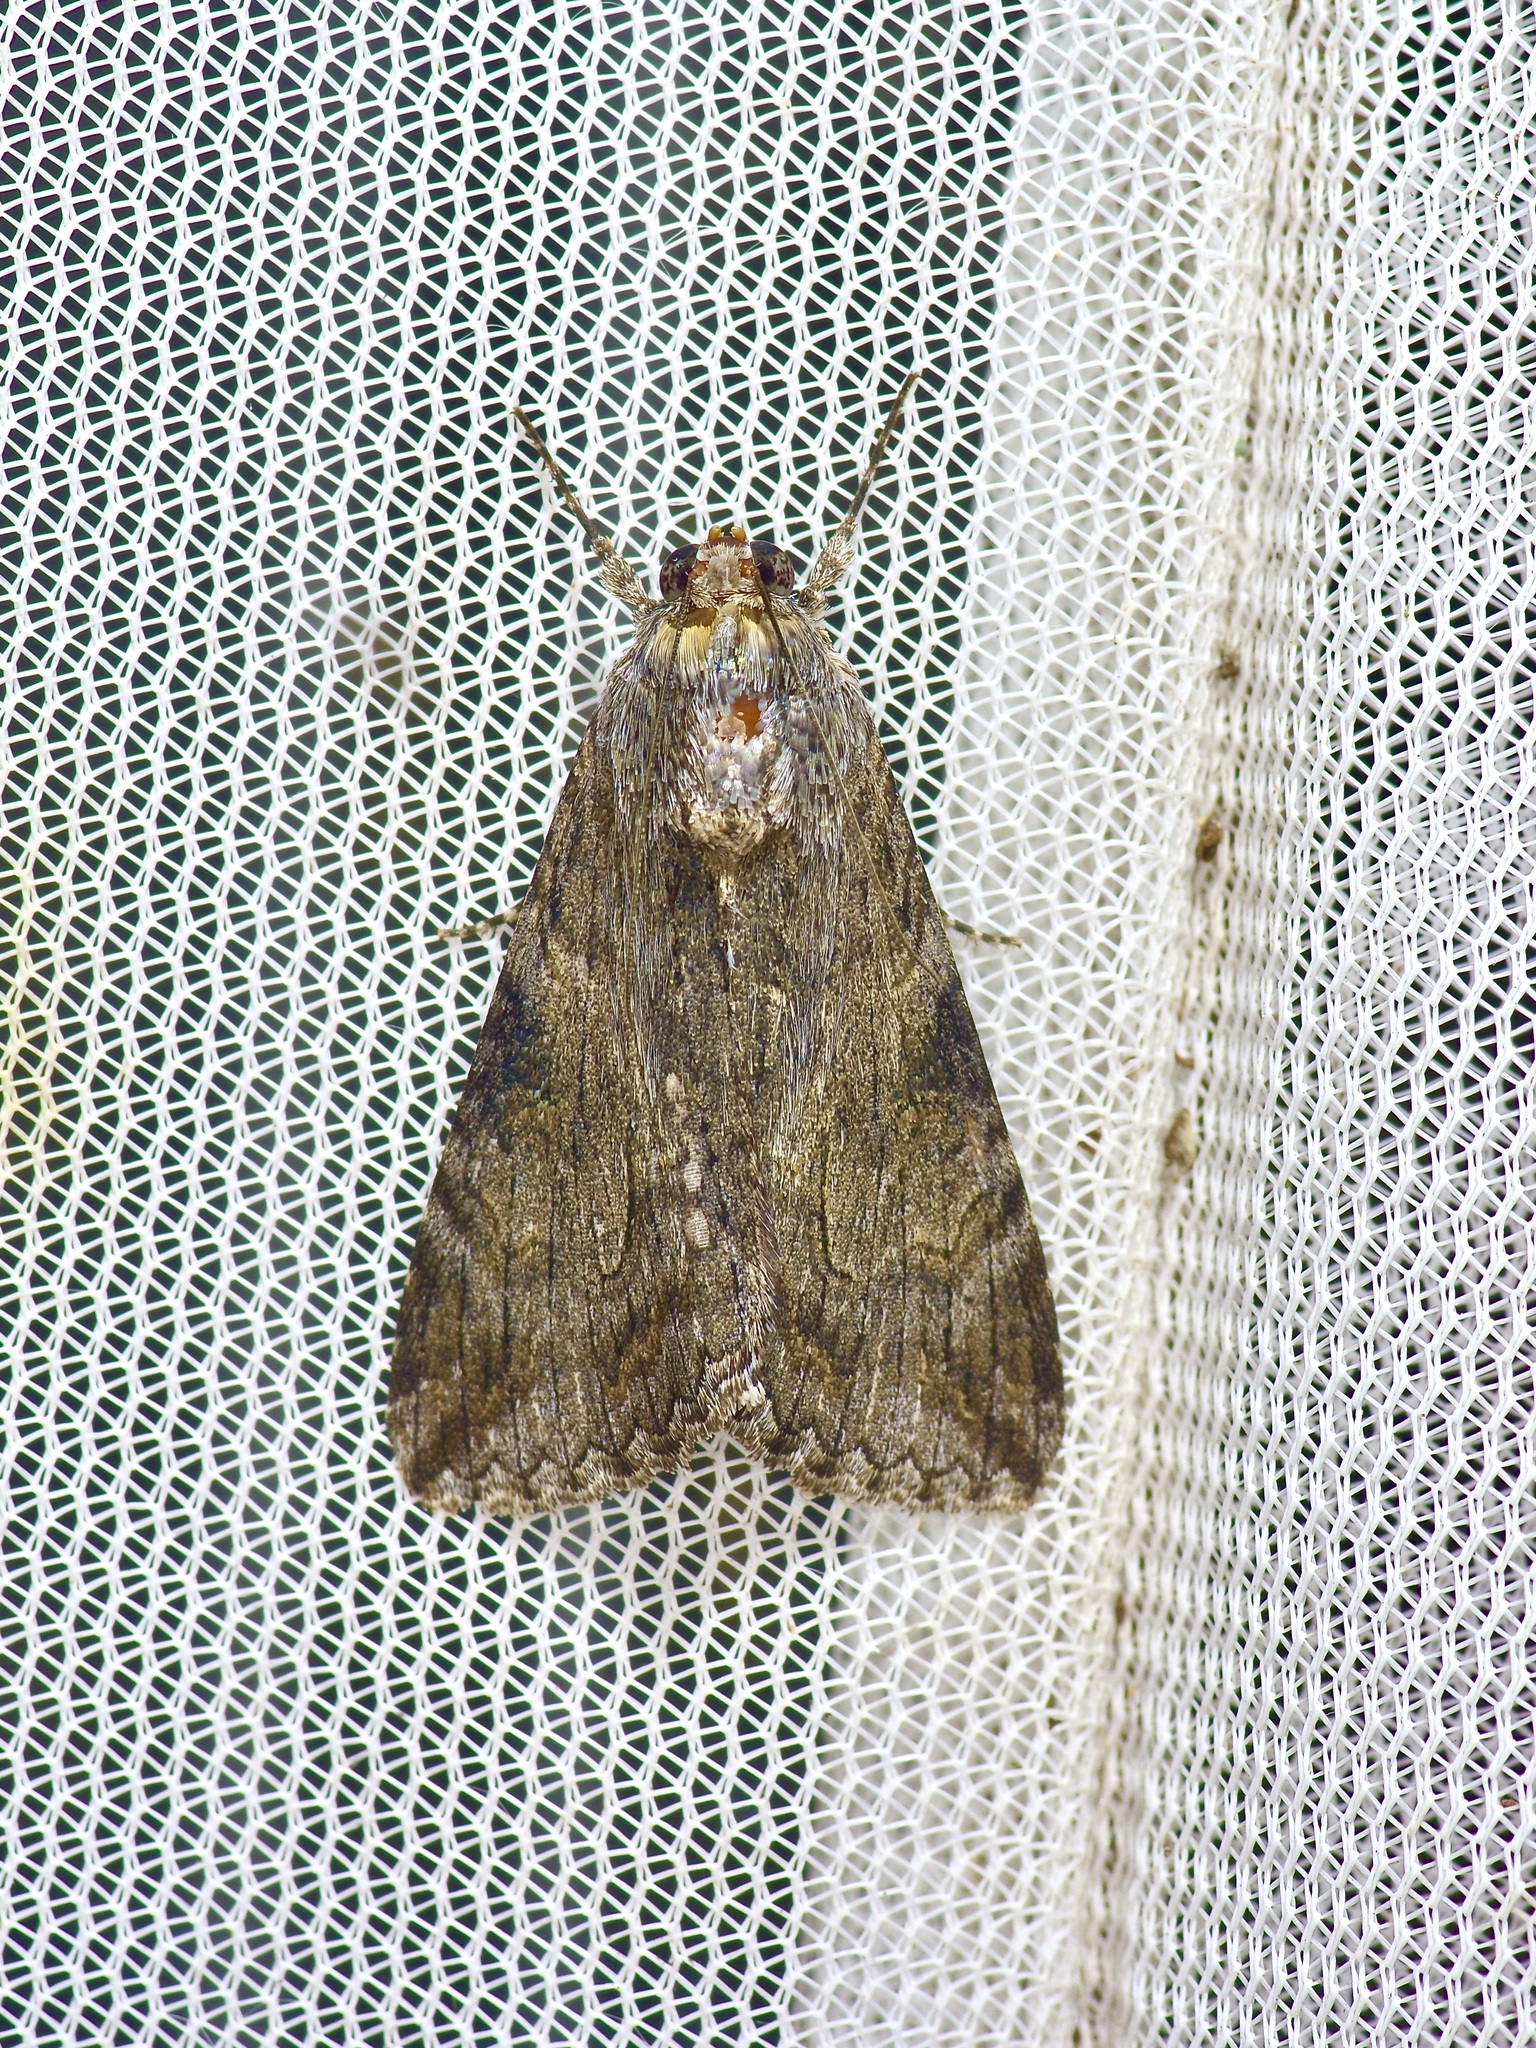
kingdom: Animalia
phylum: Arthropoda
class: Insecta
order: Lepidoptera
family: Erebidae
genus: Melipotis
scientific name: Melipotis jucunda
